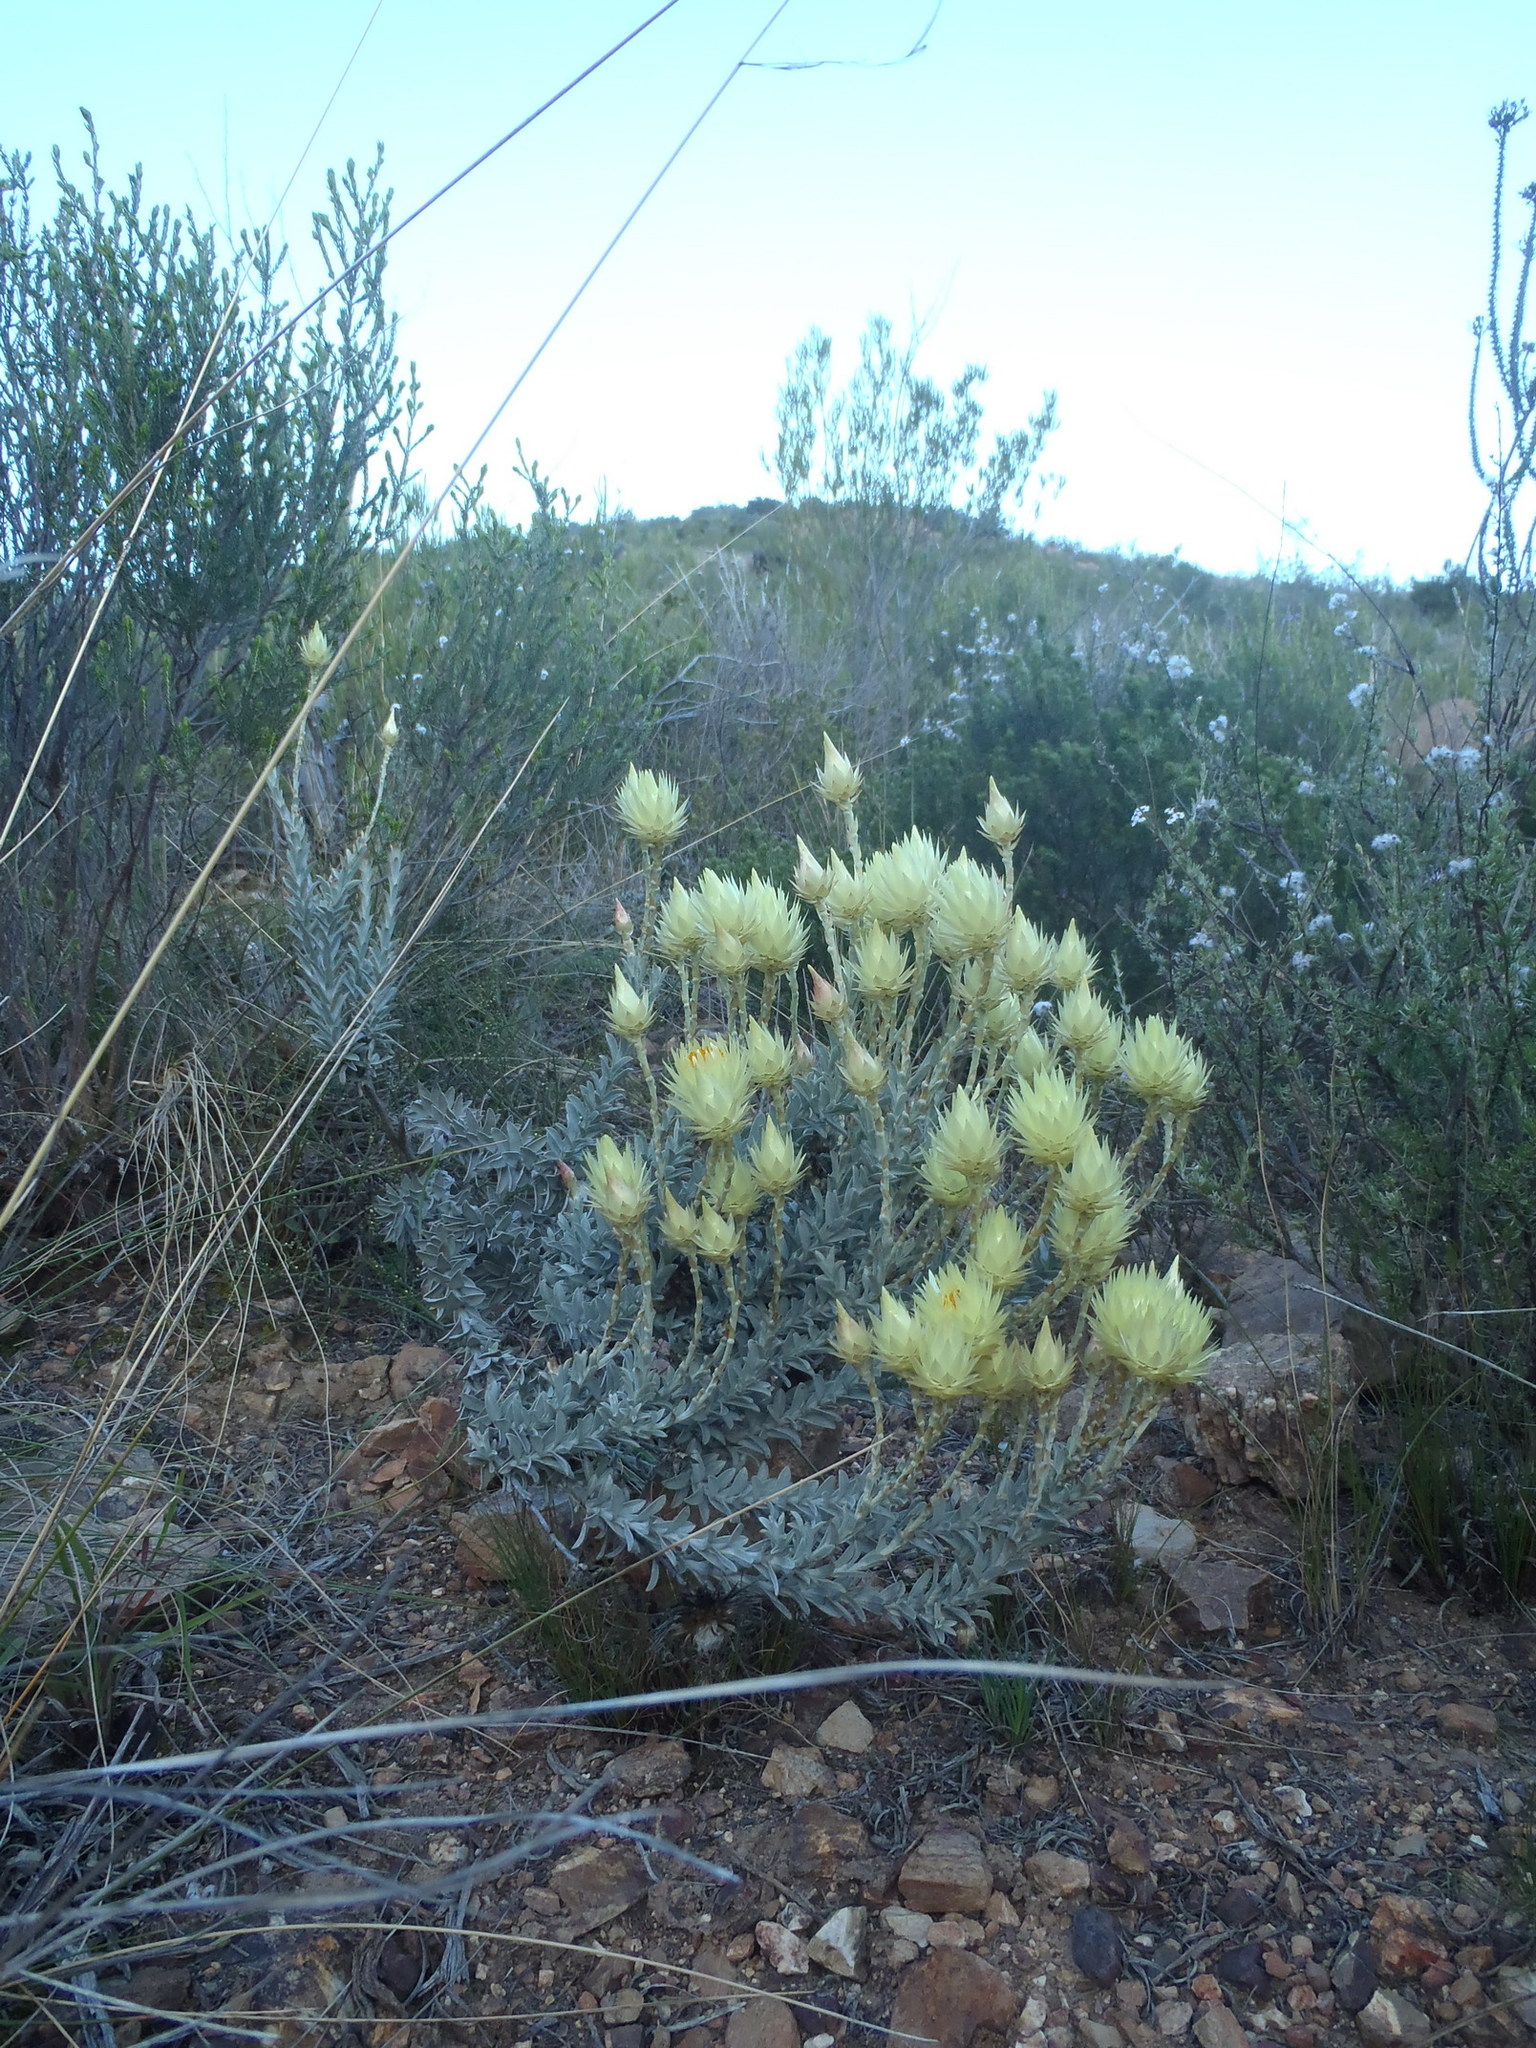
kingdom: Plantae
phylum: Tracheophyta
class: Magnoliopsida
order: Asterales
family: Asteraceae
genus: Syncarpha
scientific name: Syncarpha ferruginea
